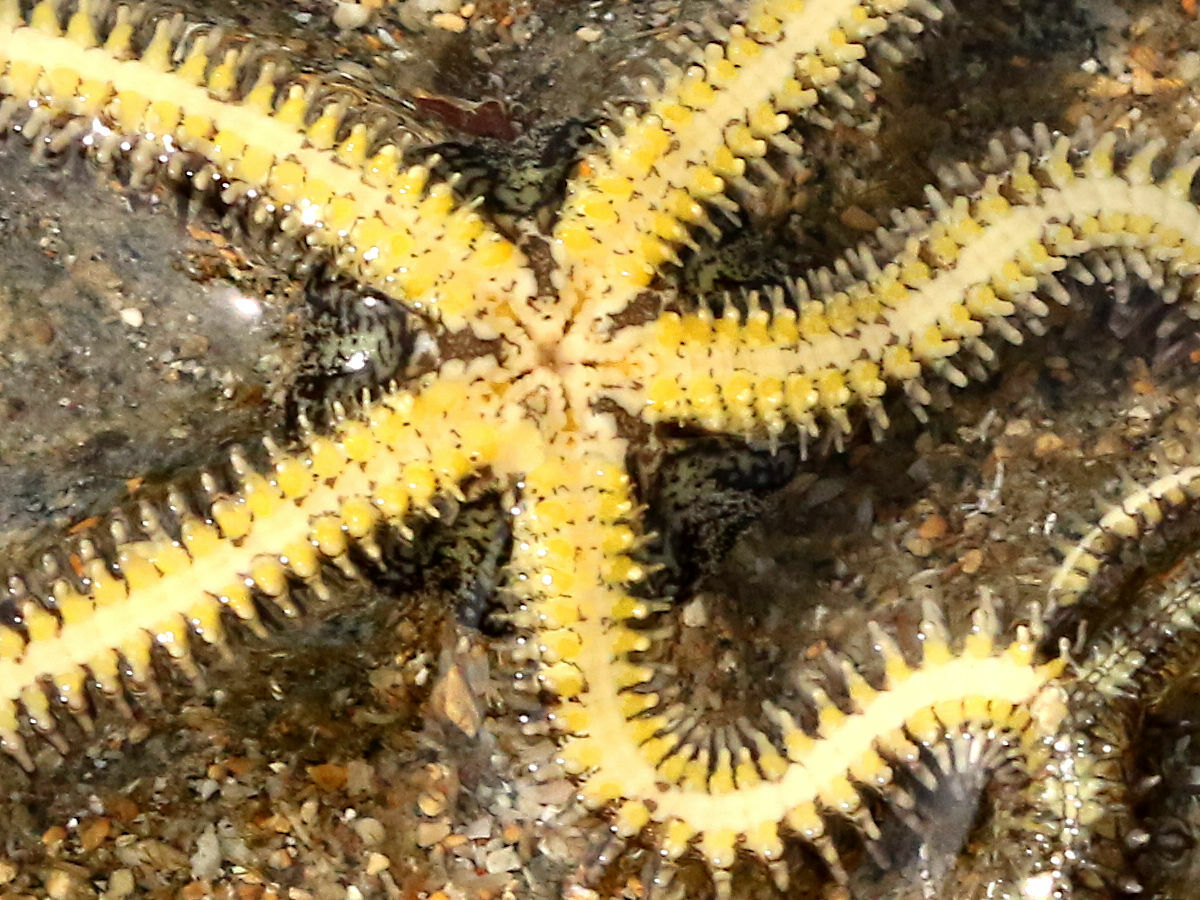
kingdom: Animalia
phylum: Echinodermata
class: Ophiuroidea
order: Ophiacanthida
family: Ophiocomidae
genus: Ophiocoma
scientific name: Ophiocoma scolopendrina
